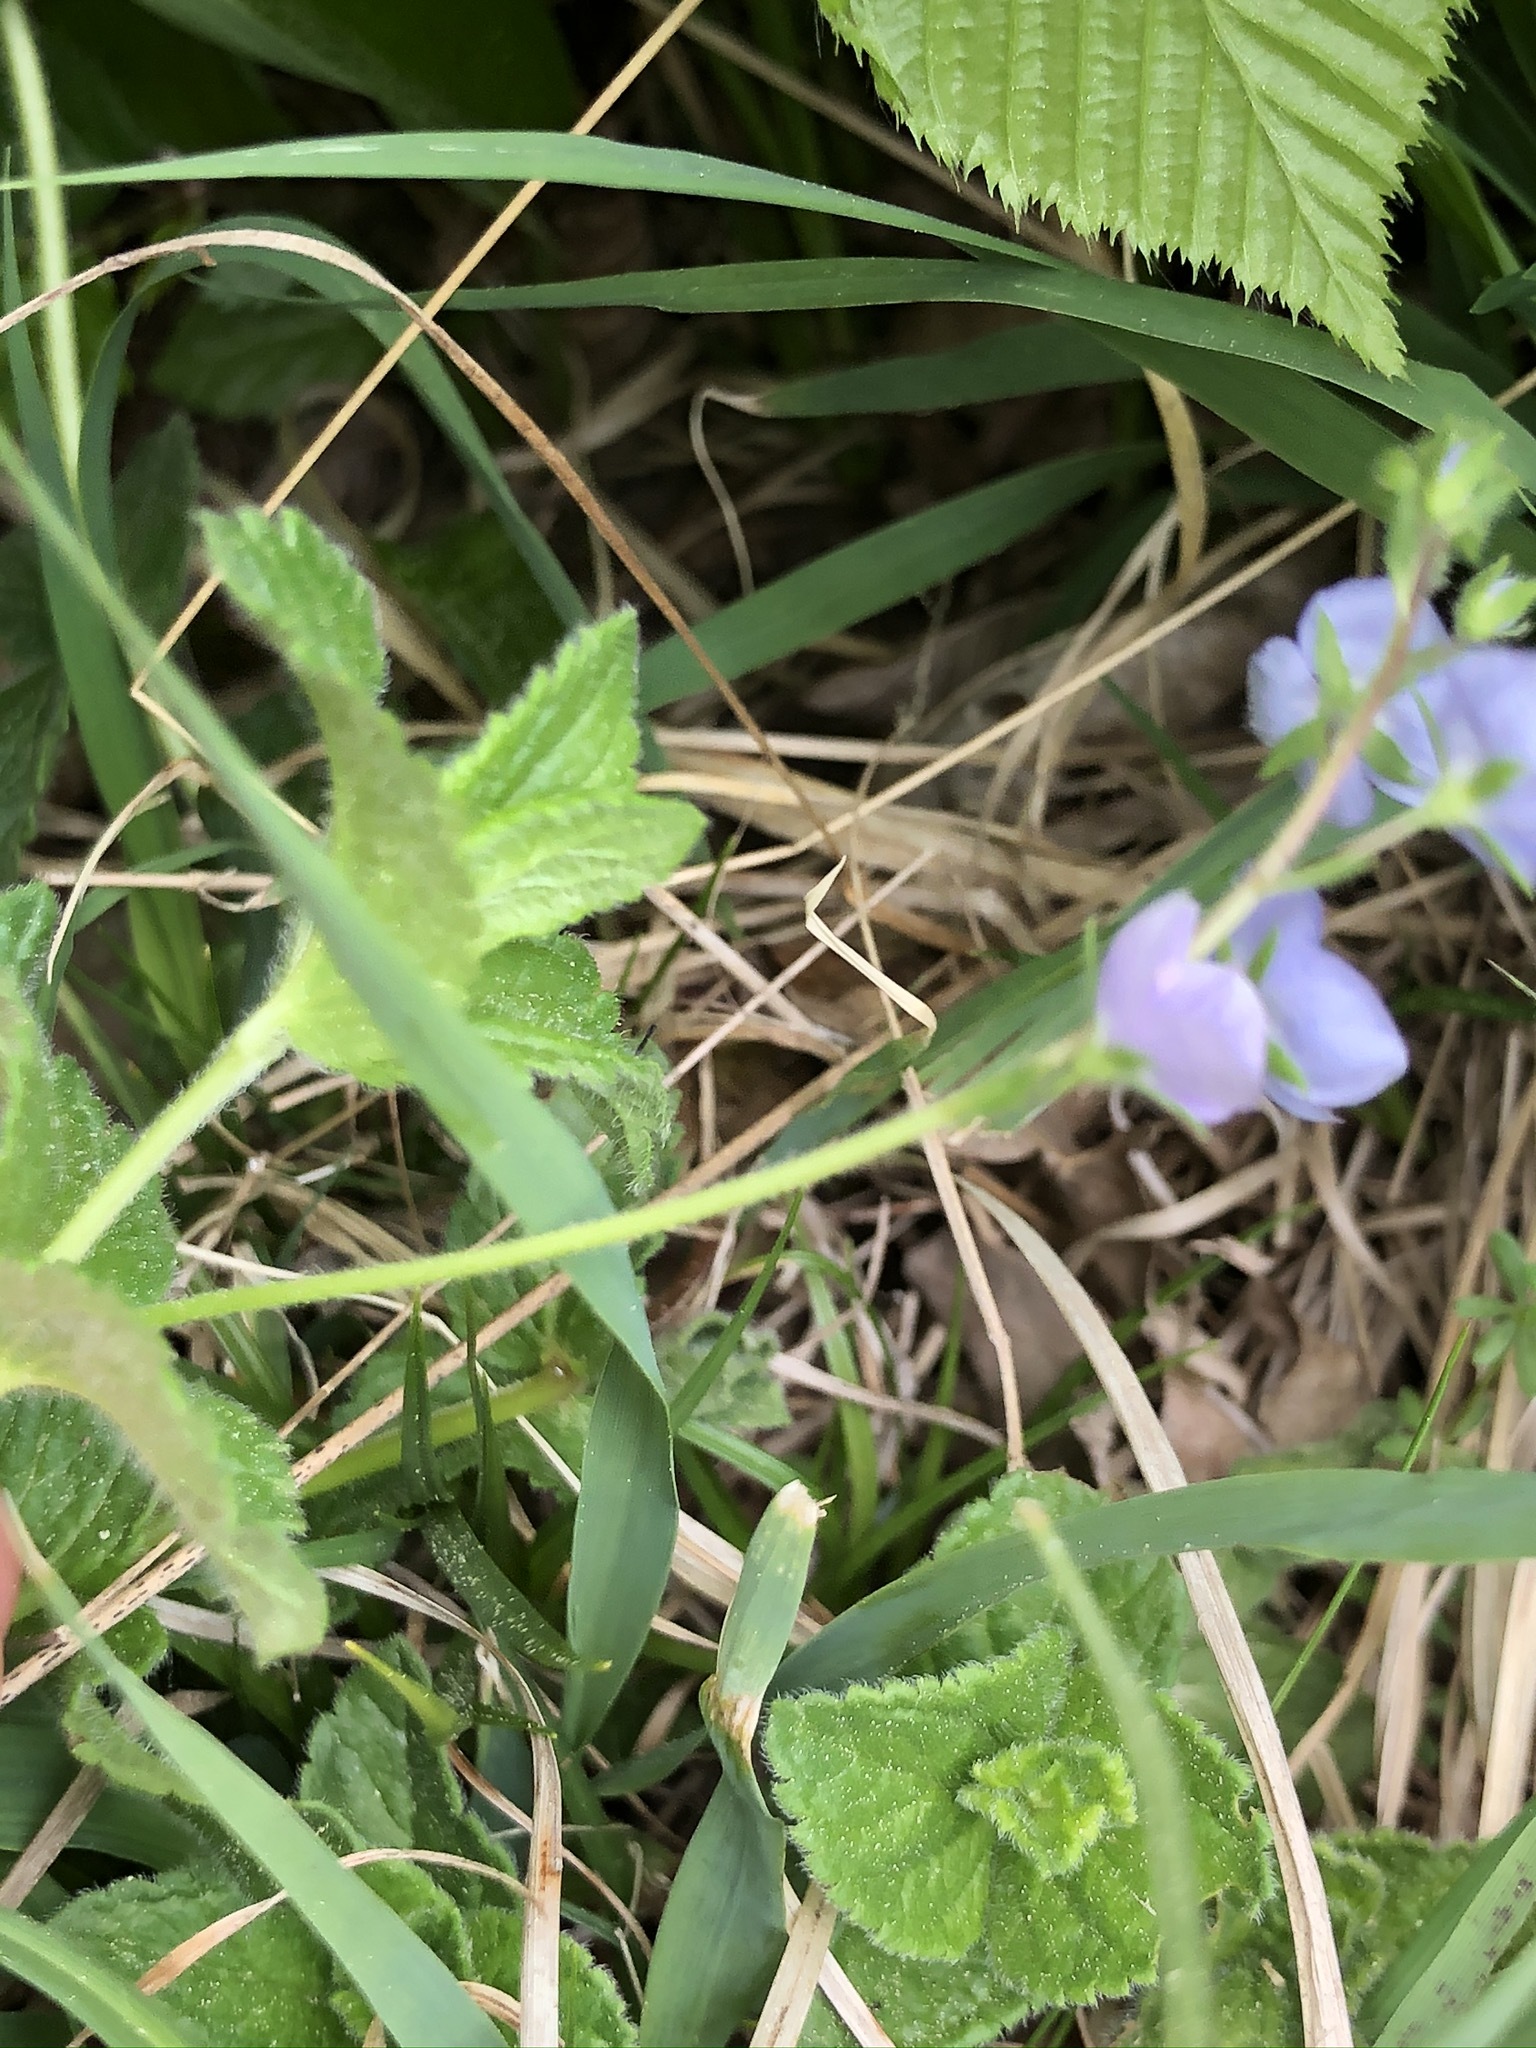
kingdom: Plantae
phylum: Tracheophyta
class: Magnoliopsida
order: Lamiales
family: Plantaginaceae
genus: Veronica
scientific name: Veronica chamaedrys
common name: Germander speedwell
